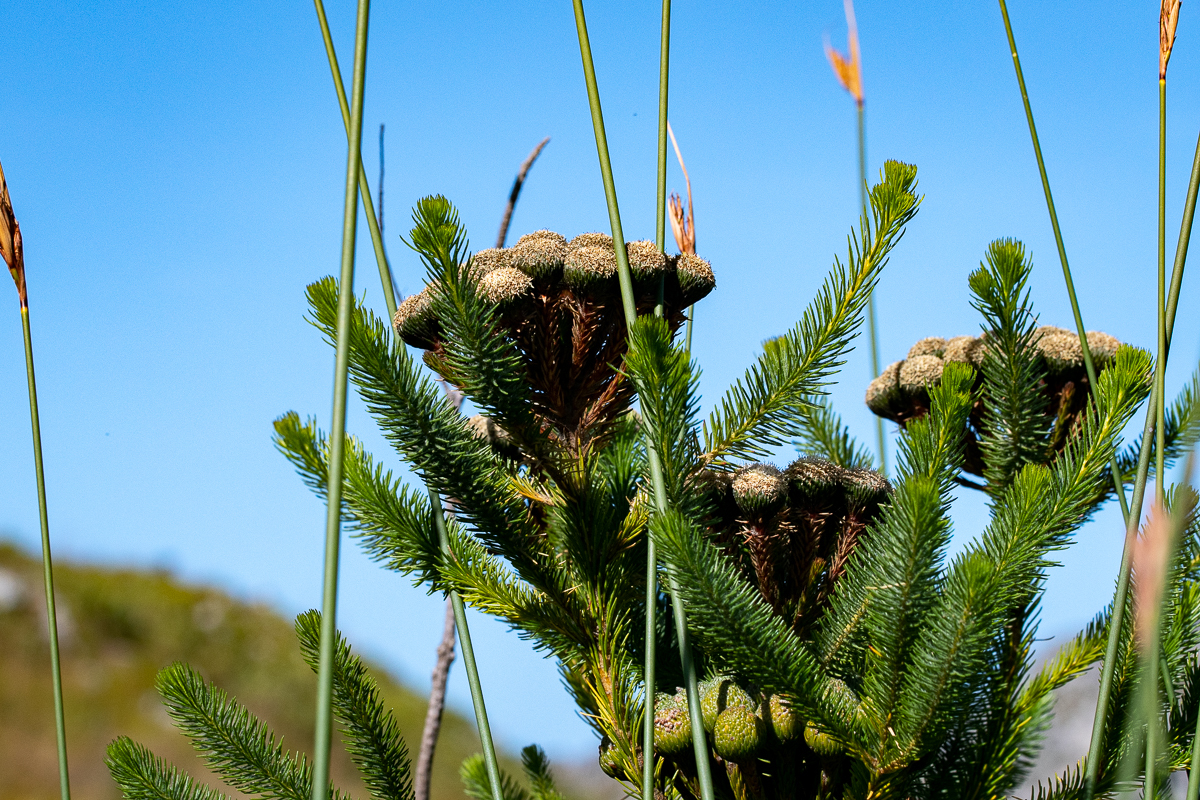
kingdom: Plantae
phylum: Tracheophyta
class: Magnoliopsida
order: Bruniales
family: Bruniaceae
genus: Berzelia
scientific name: Berzelia albiflora
